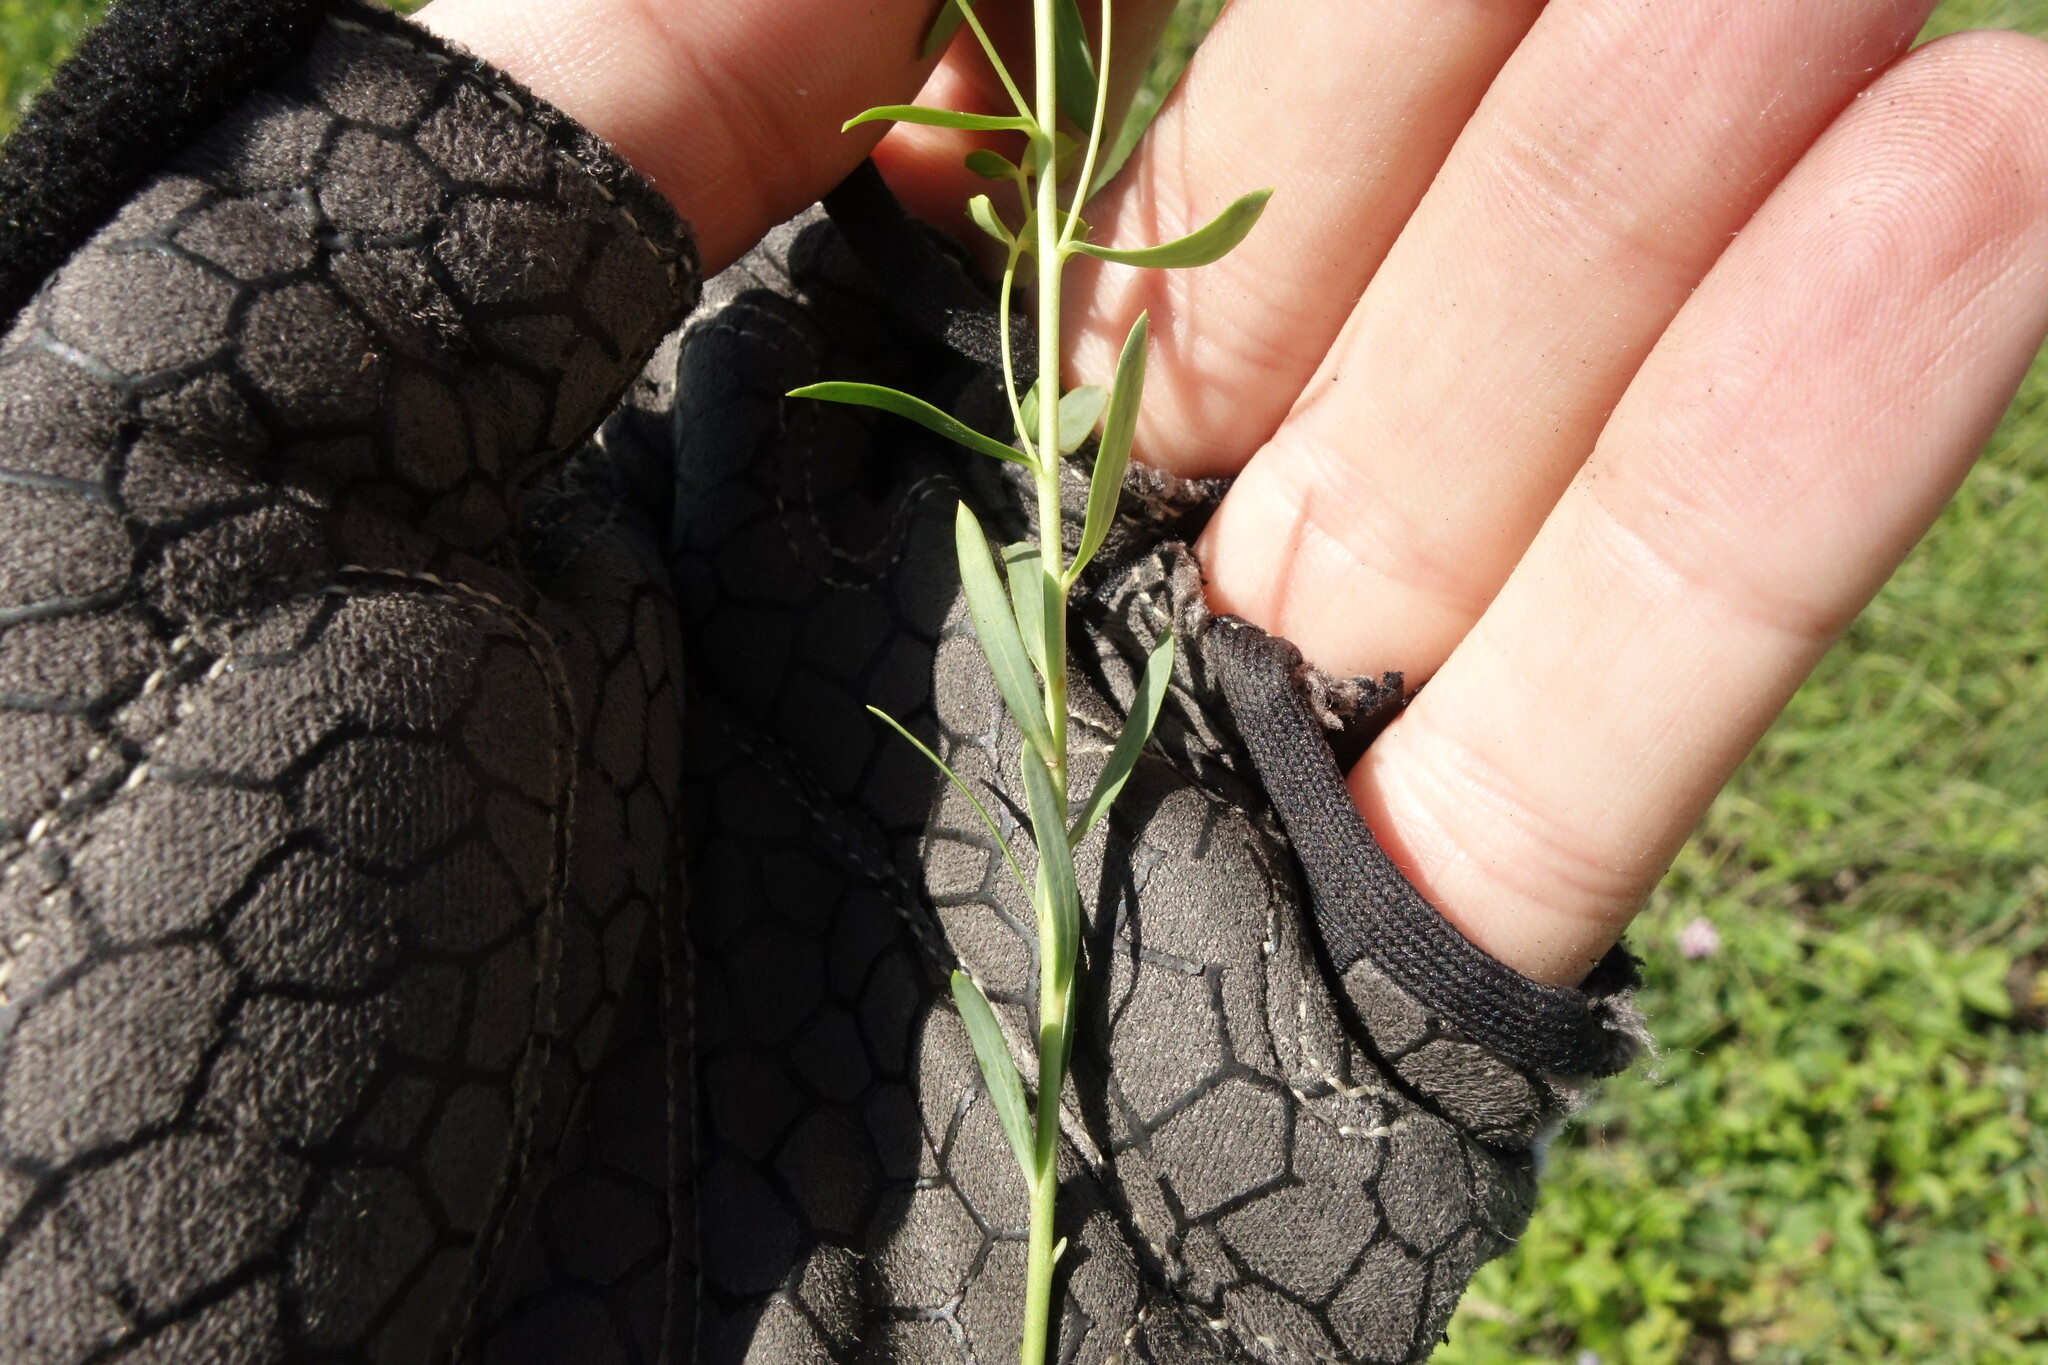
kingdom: Plantae
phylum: Tracheophyta
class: Magnoliopsida
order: Malpighiales
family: Euphorbiaceae
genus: Euphorbia
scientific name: Euphorbia seguieriana
